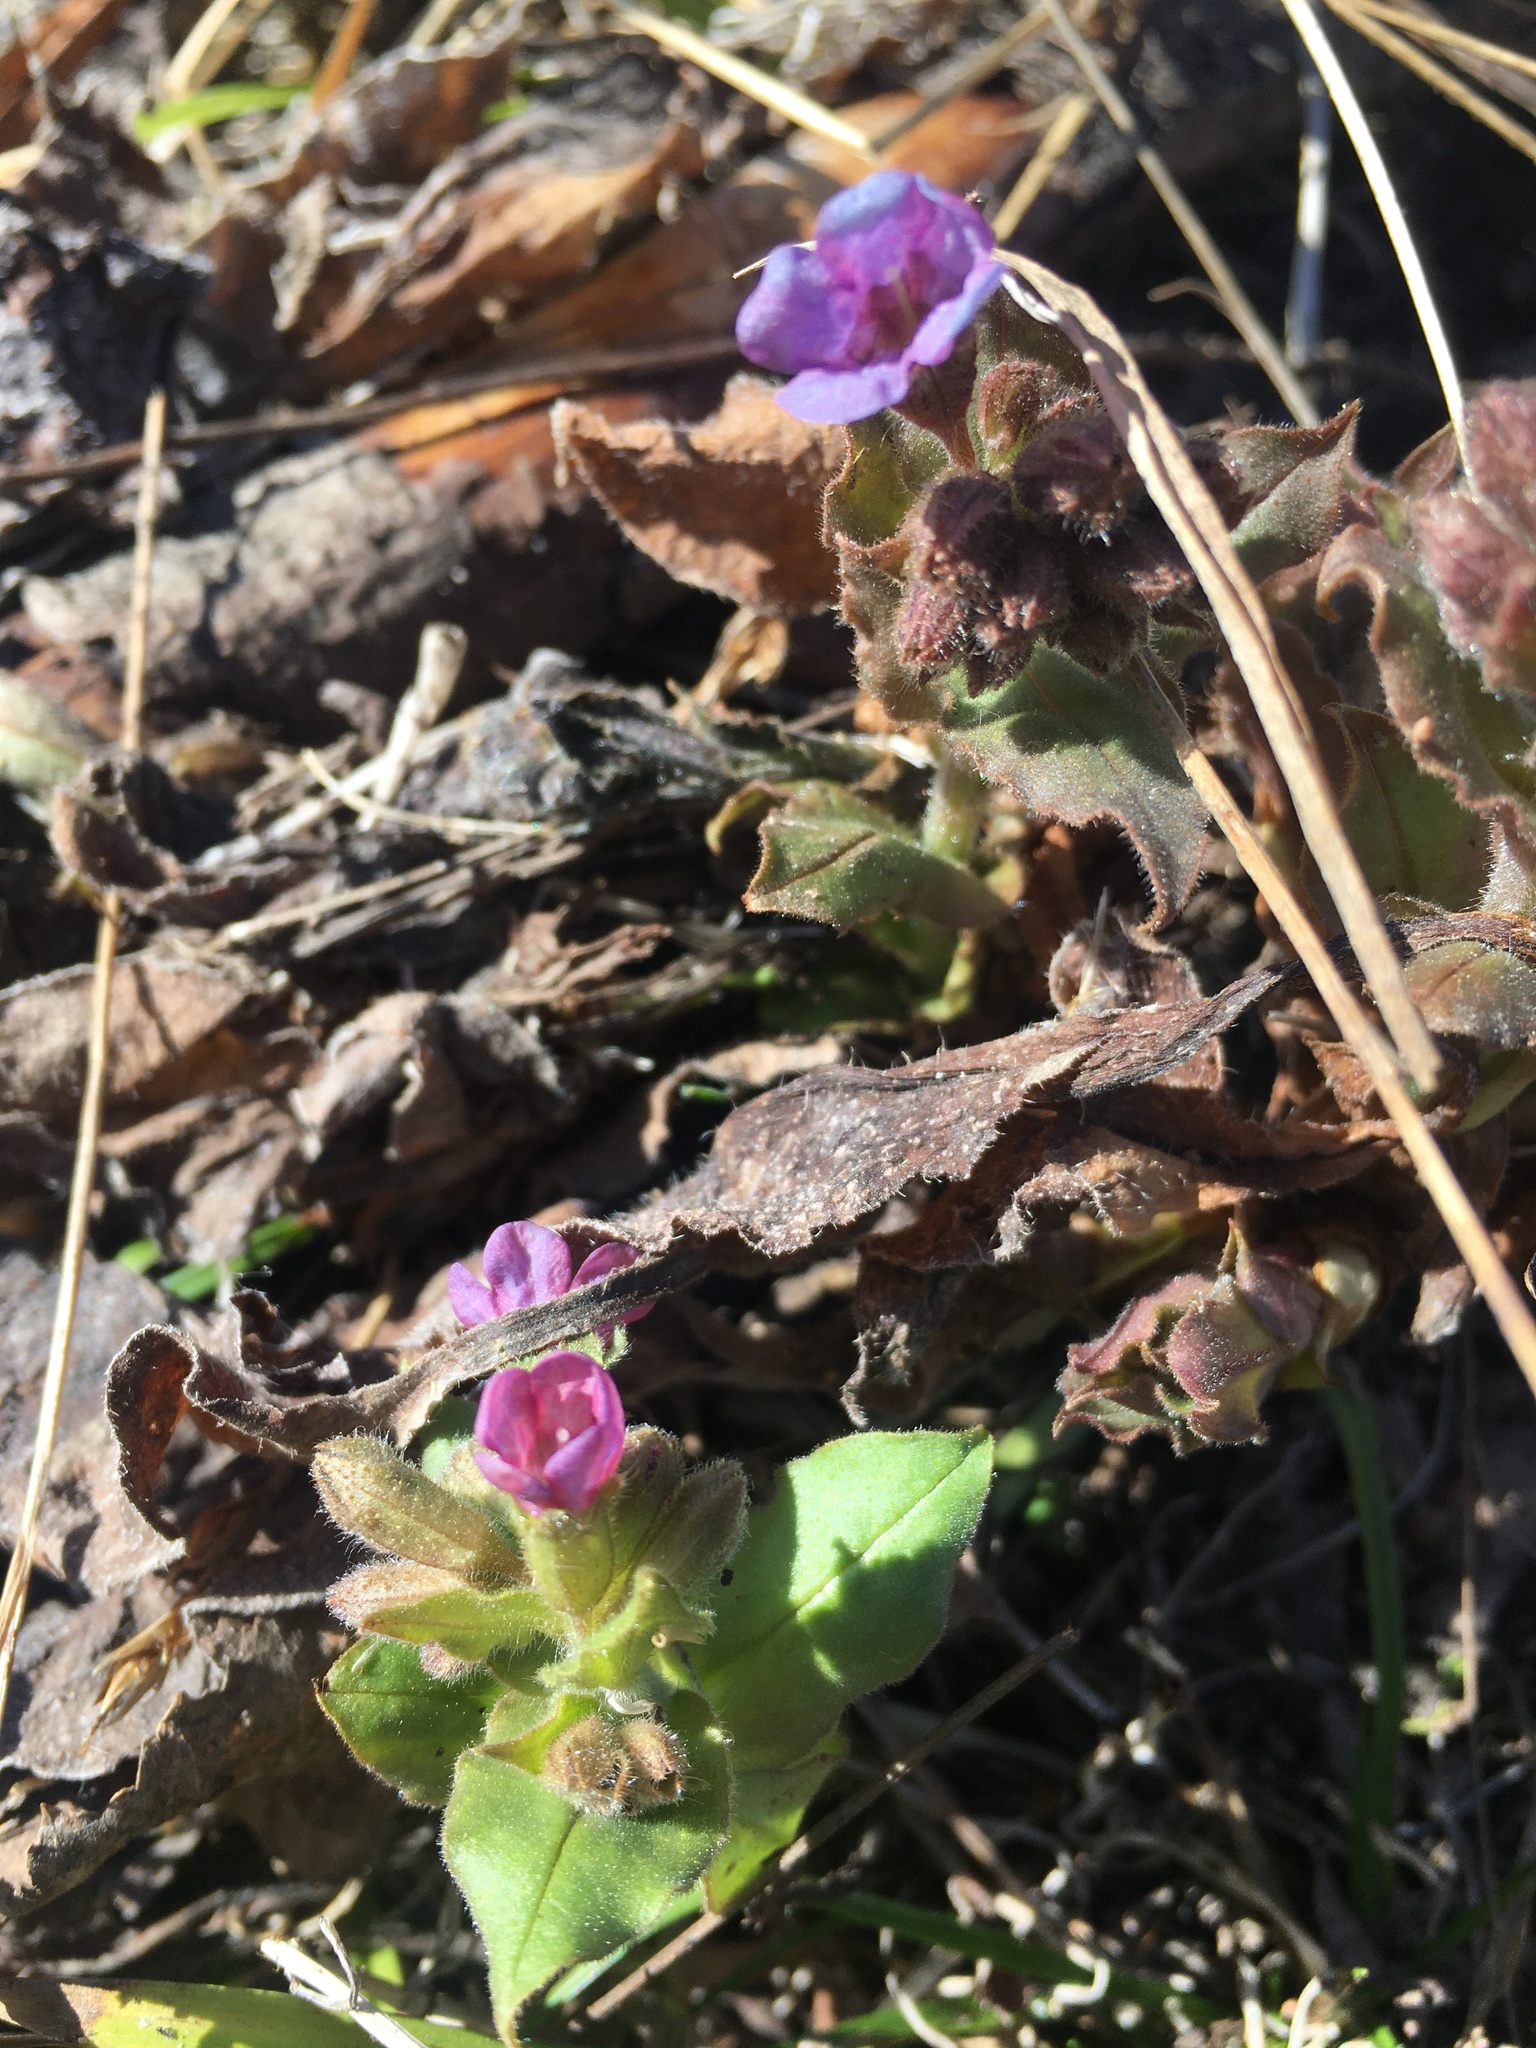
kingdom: Plantae
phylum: Tracheophyta
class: Magnoliopsida
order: Boraginales
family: Boraginaceae
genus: Pulmonaria
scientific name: Pulmonaria obscura
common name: Suffolk lungwort
